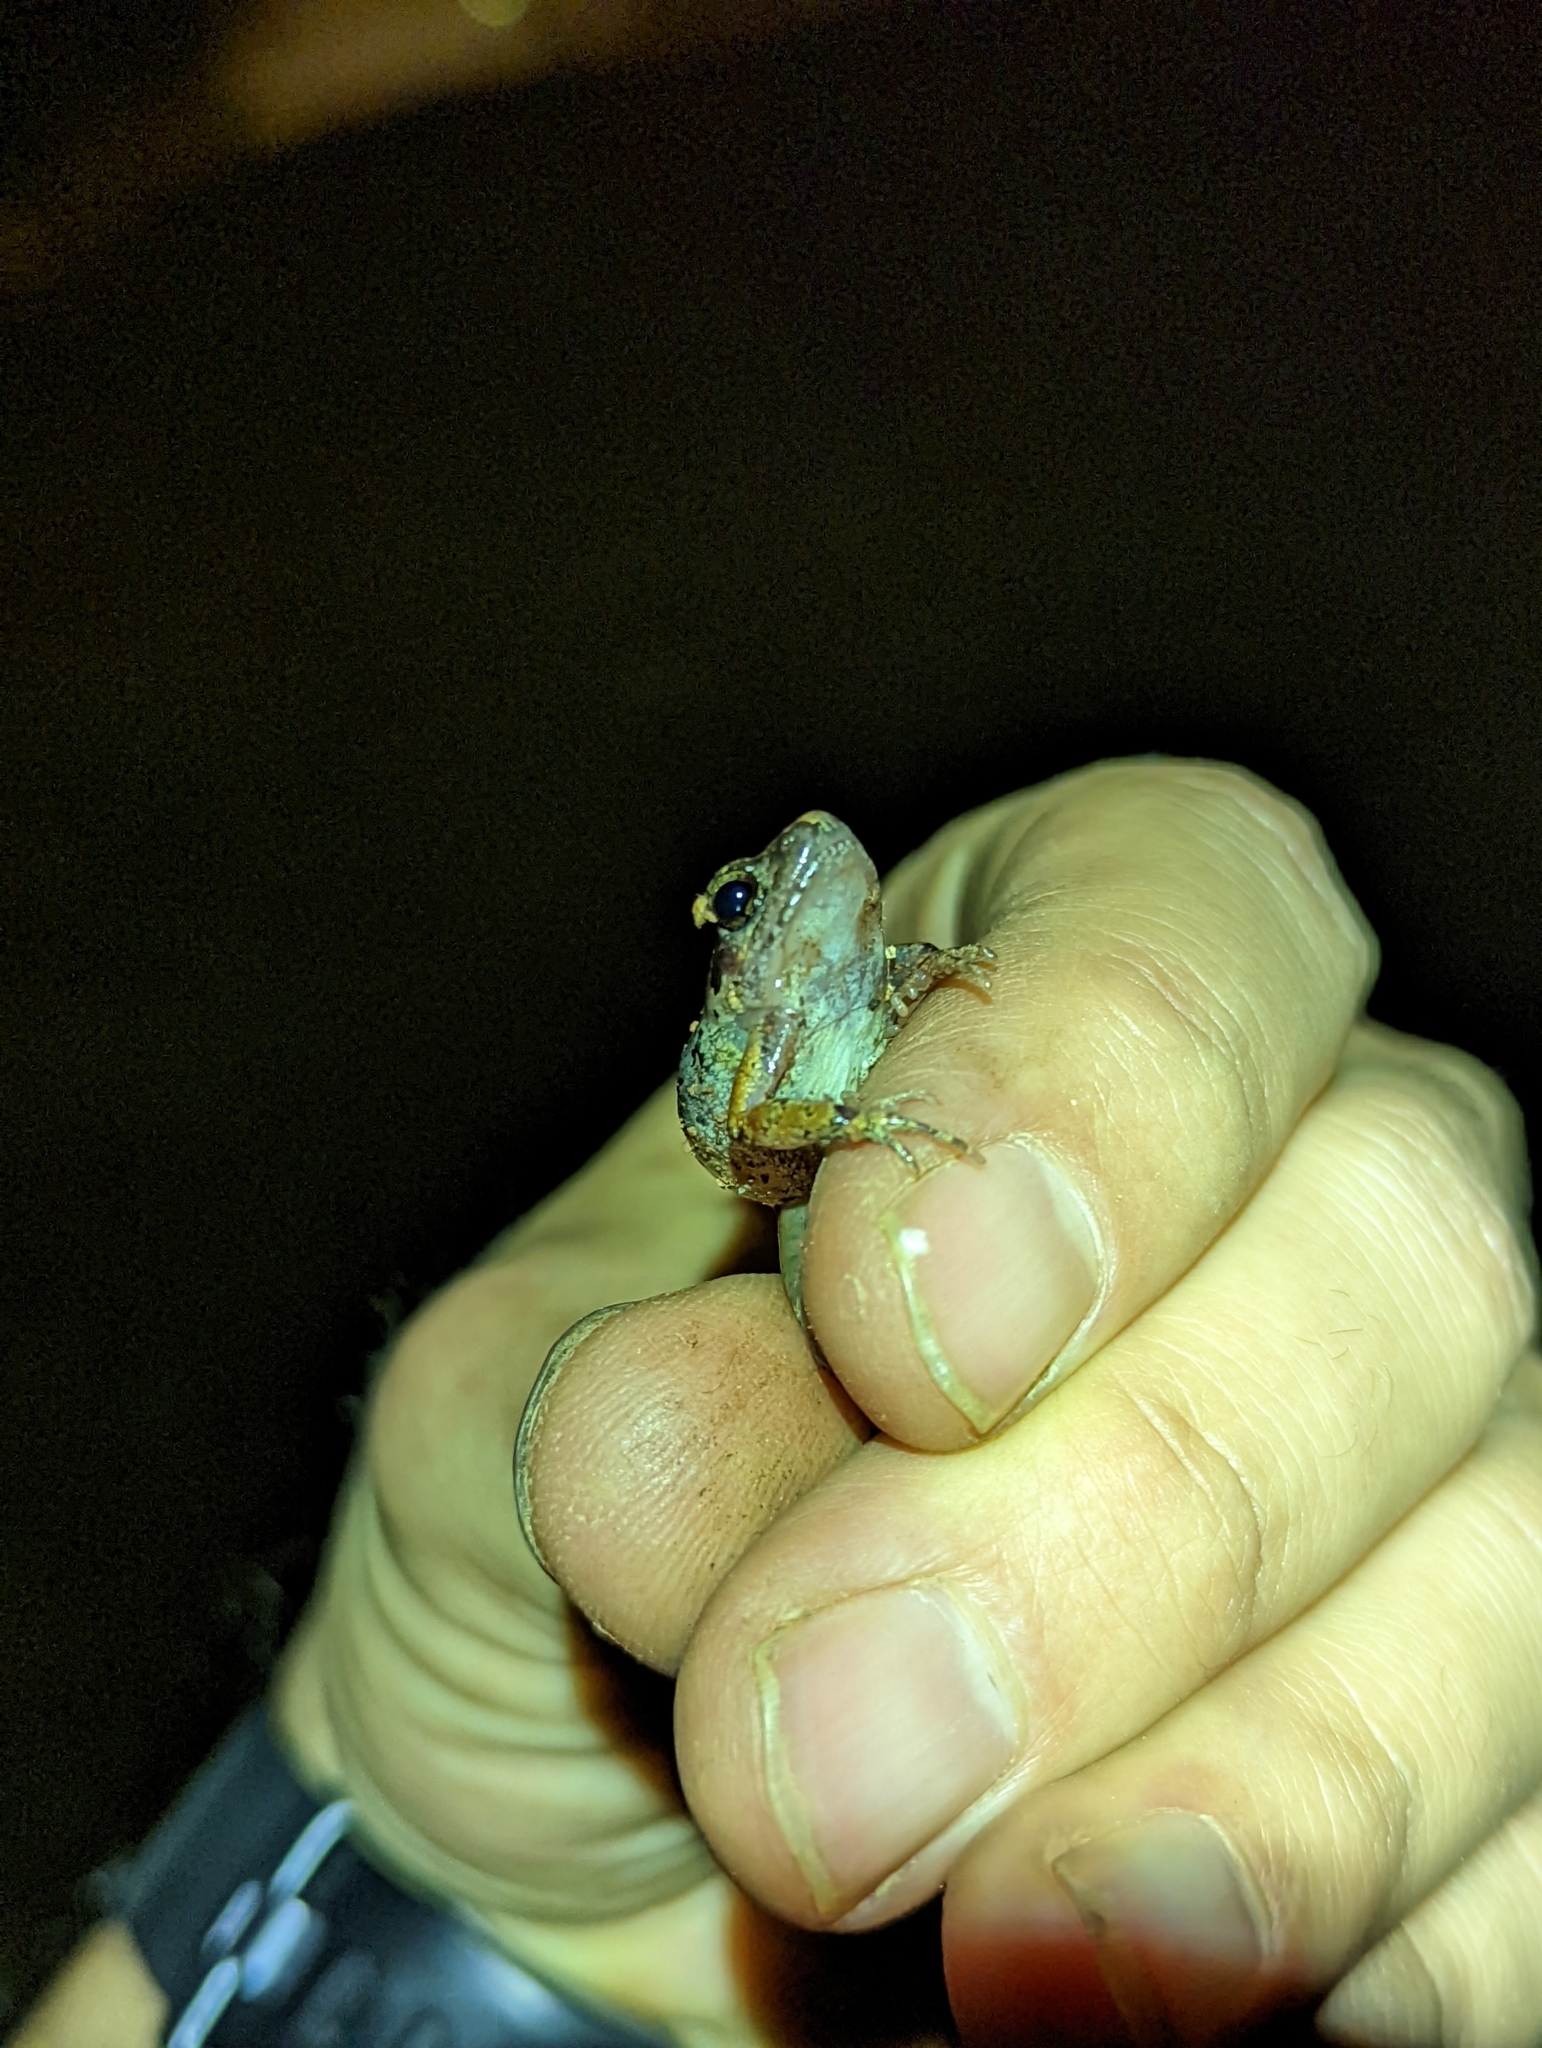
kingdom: Animalia
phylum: Chordata
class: Amphibia
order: Anura
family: Arthroleptidae
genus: Arthroleptis
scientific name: Arthroleptis poecilonotus
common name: West african screeching frog
